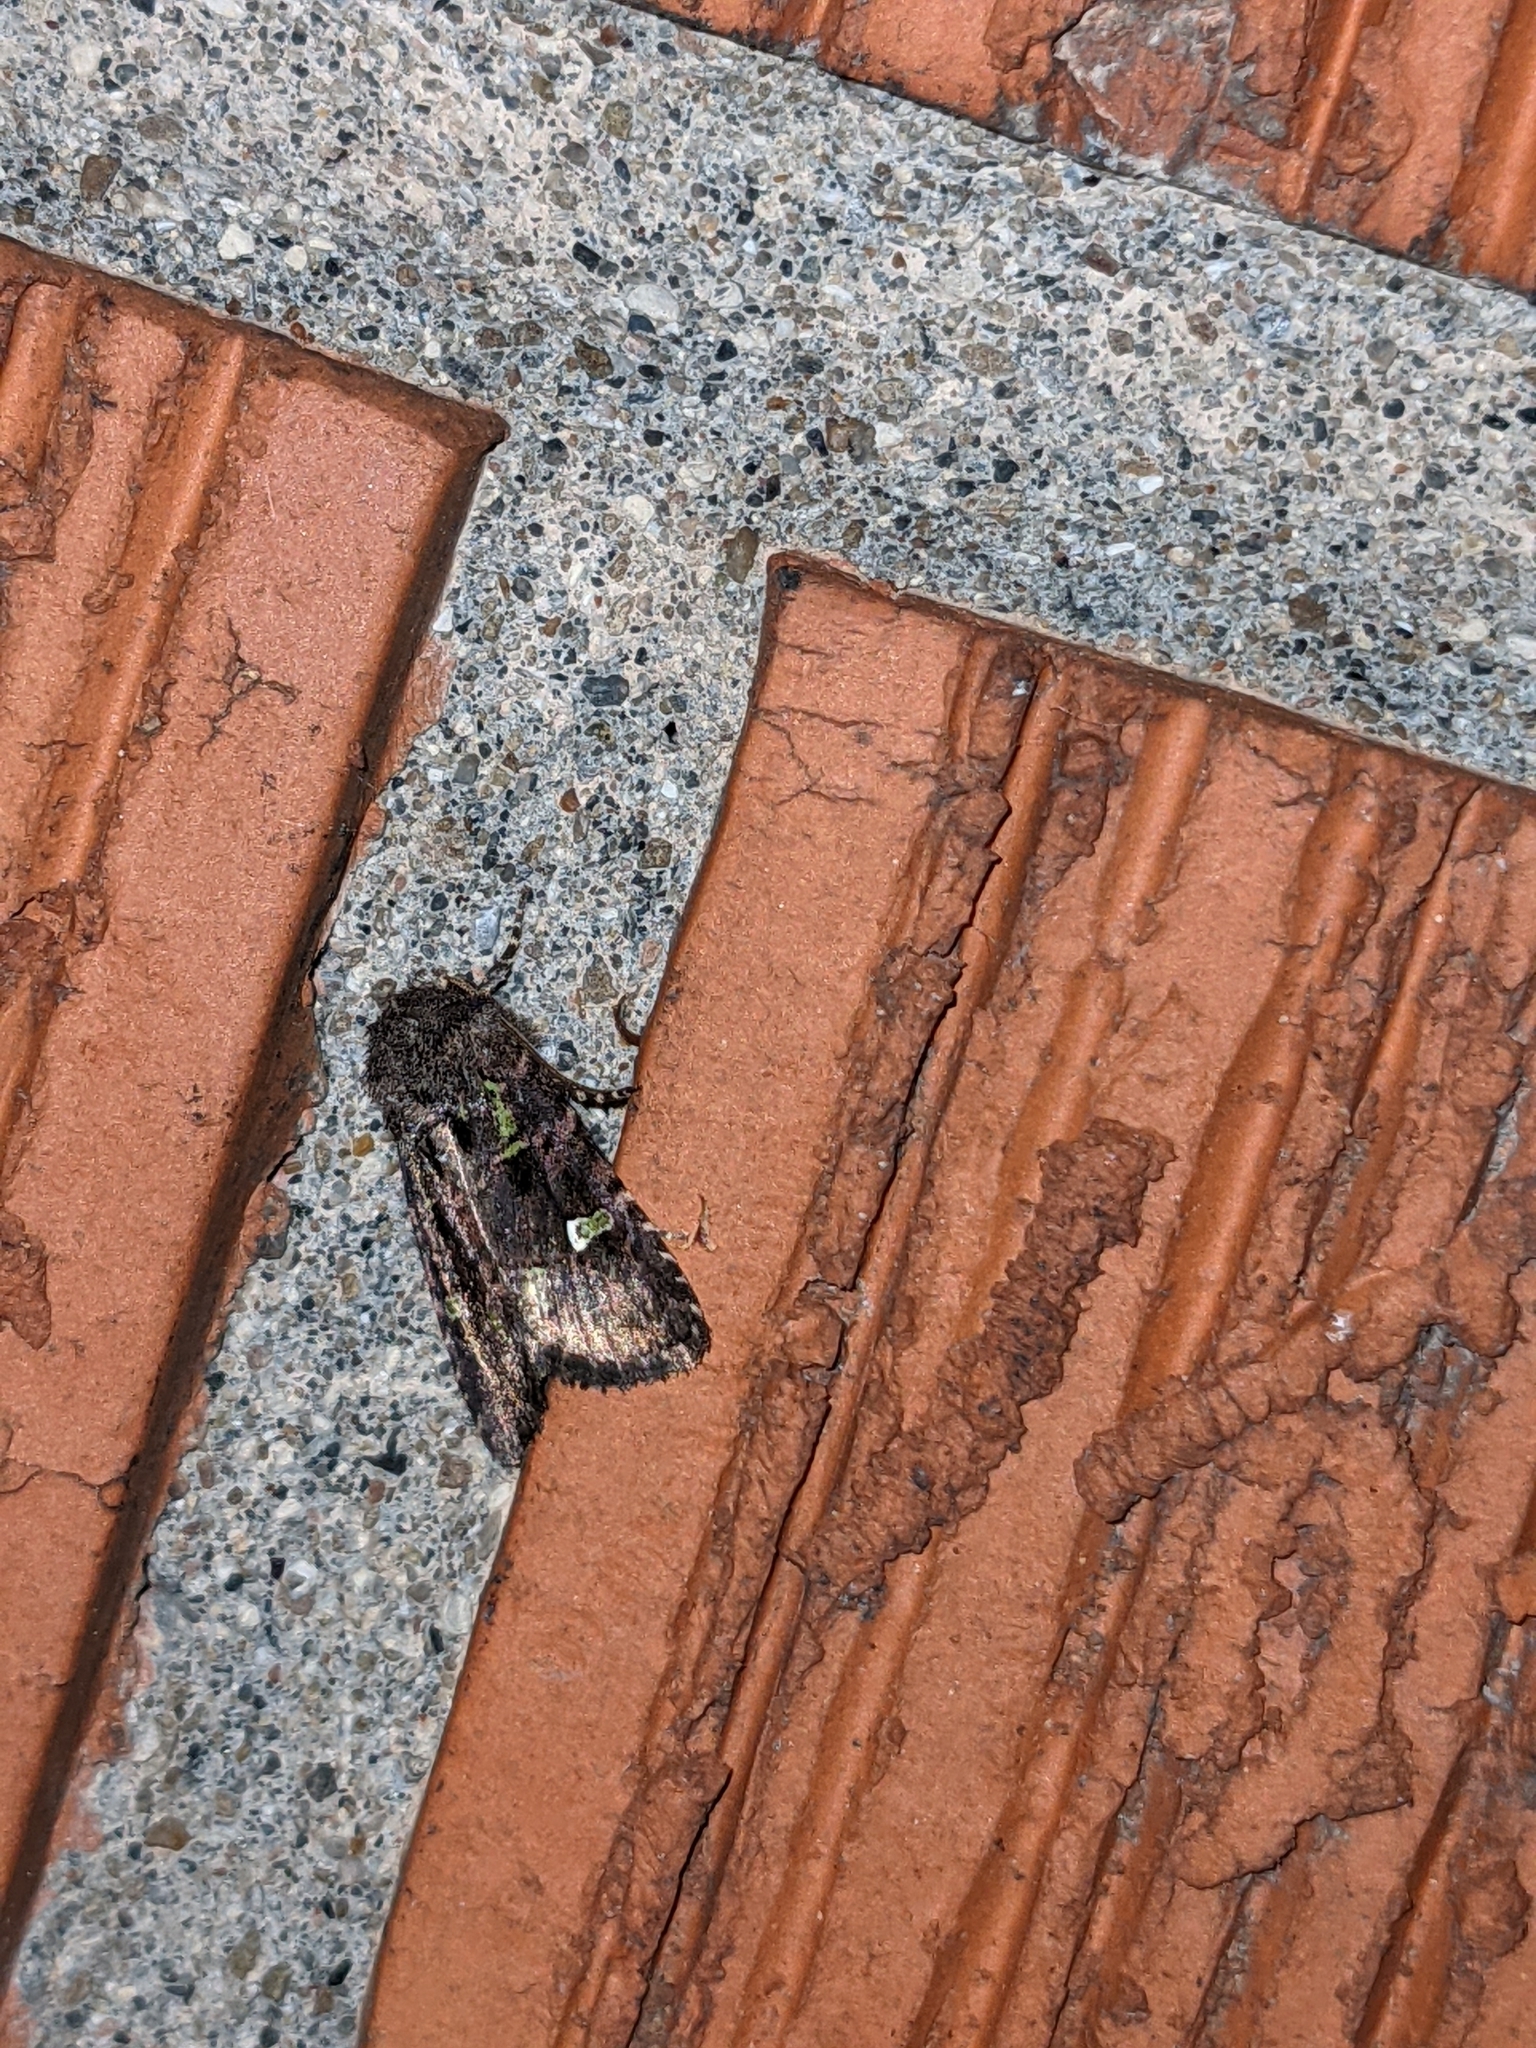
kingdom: Animalia
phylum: Arthropoda
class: Insecta
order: Lepidoptera
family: Noctuidae
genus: Lacinipolia
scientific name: Lacinipolia renigera
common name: Kidney-spotted minor
